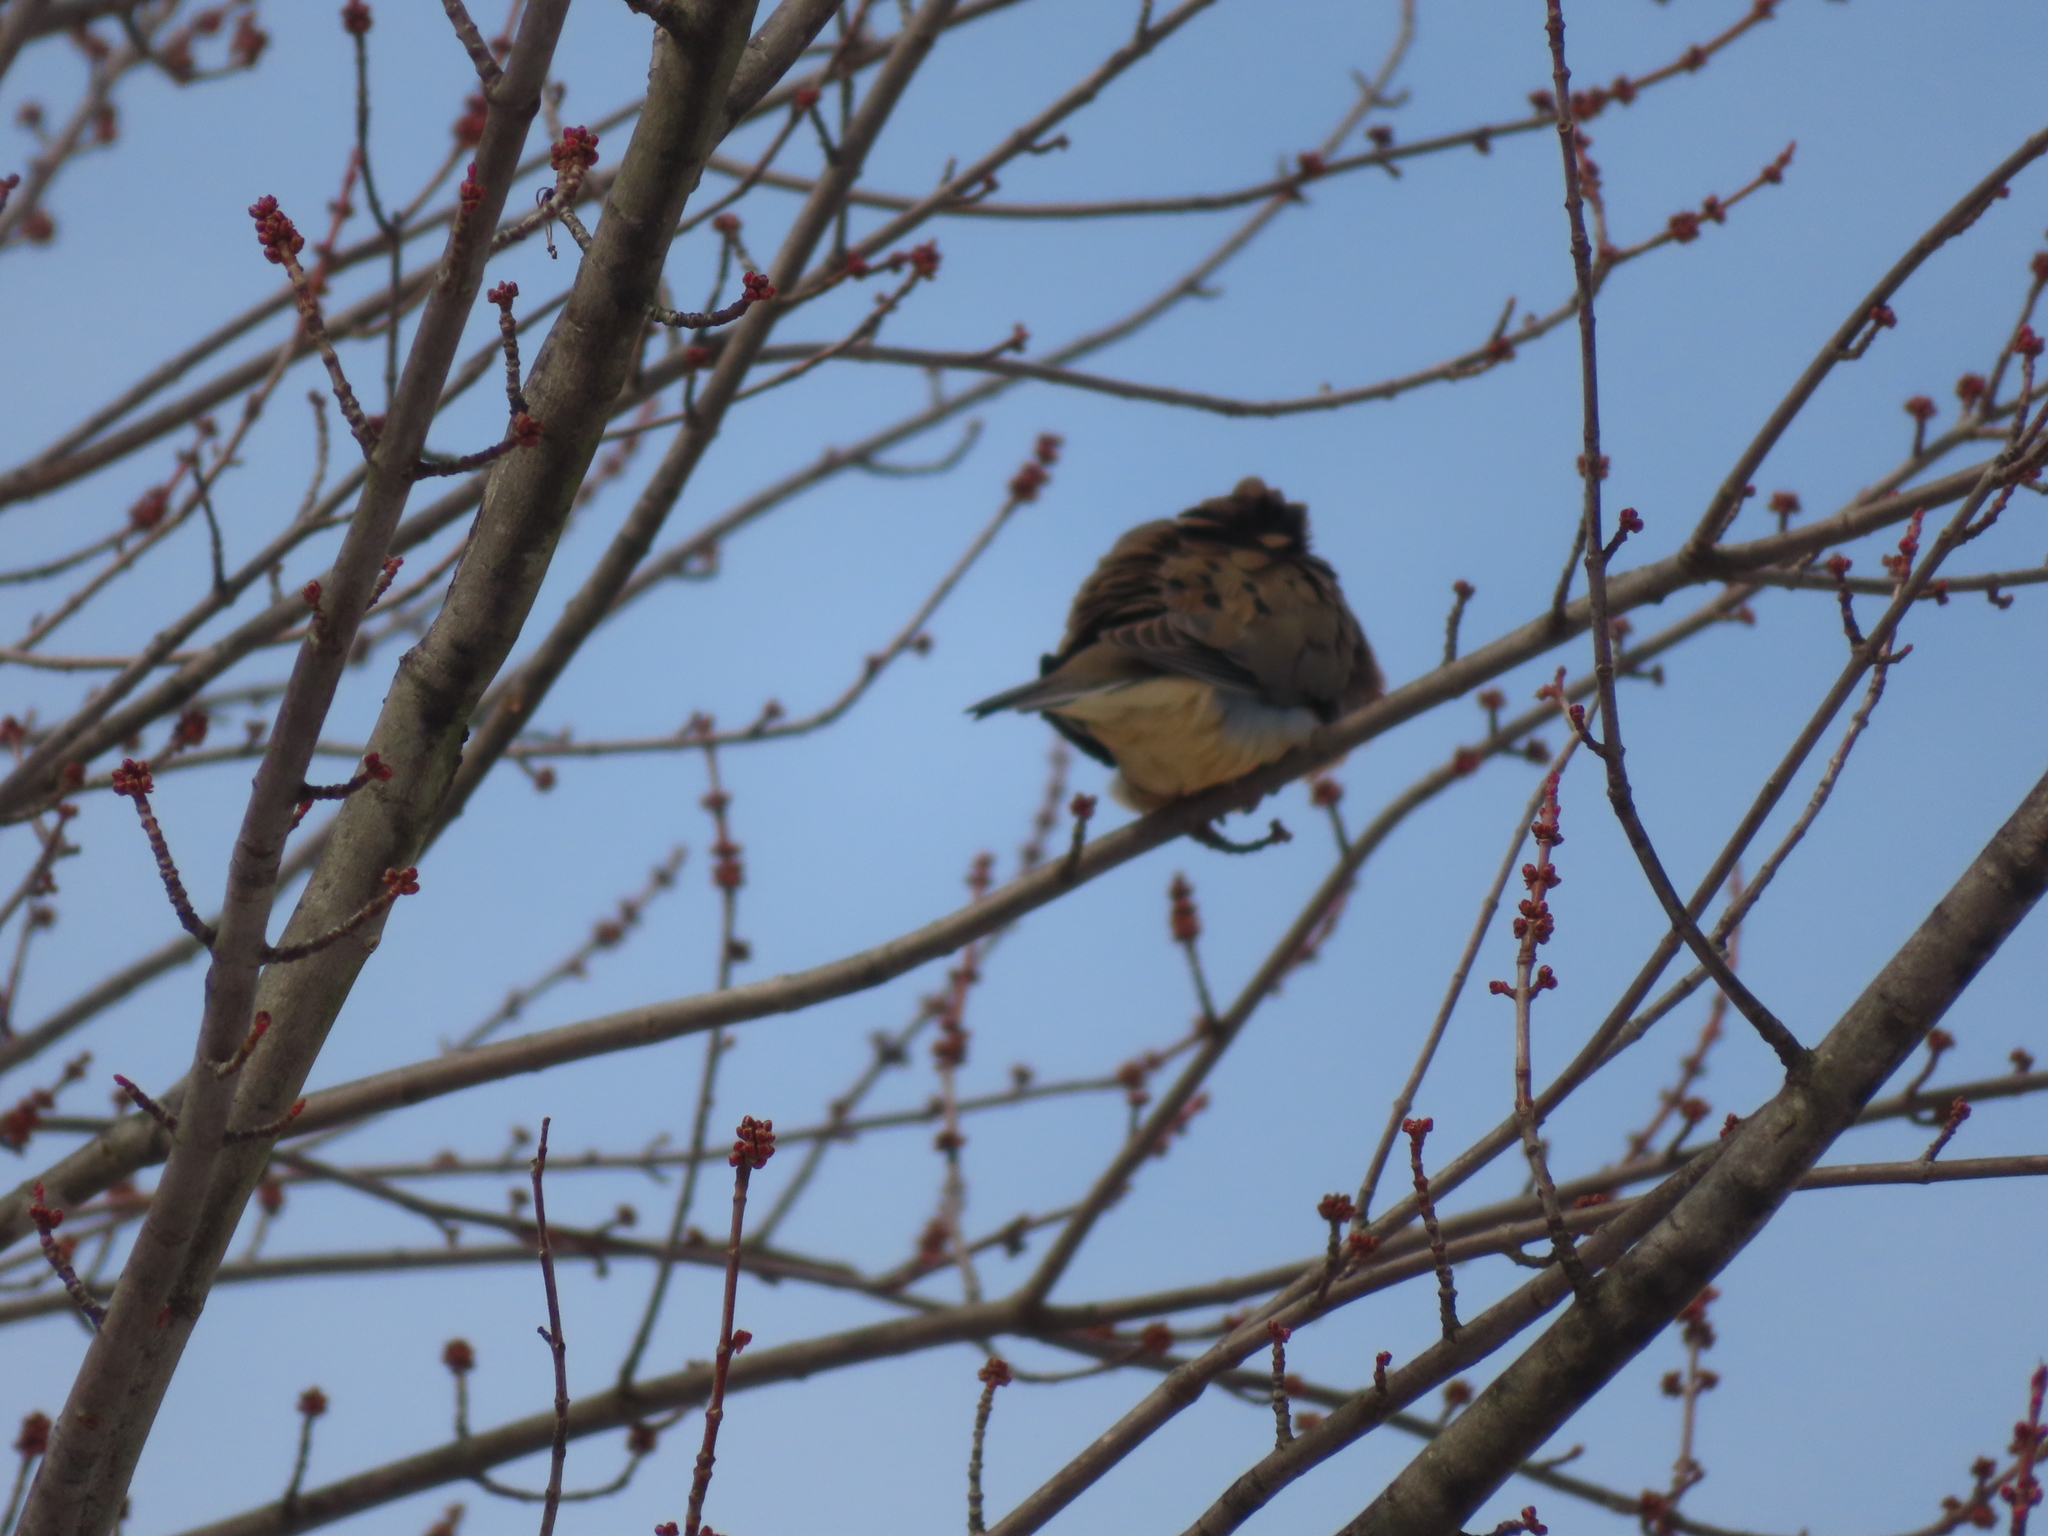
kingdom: Animalia
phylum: Chordata
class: Aves
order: Columbiformes
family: Columbidae
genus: Zenaida
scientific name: Zenaida macroura
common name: Mourning dove
